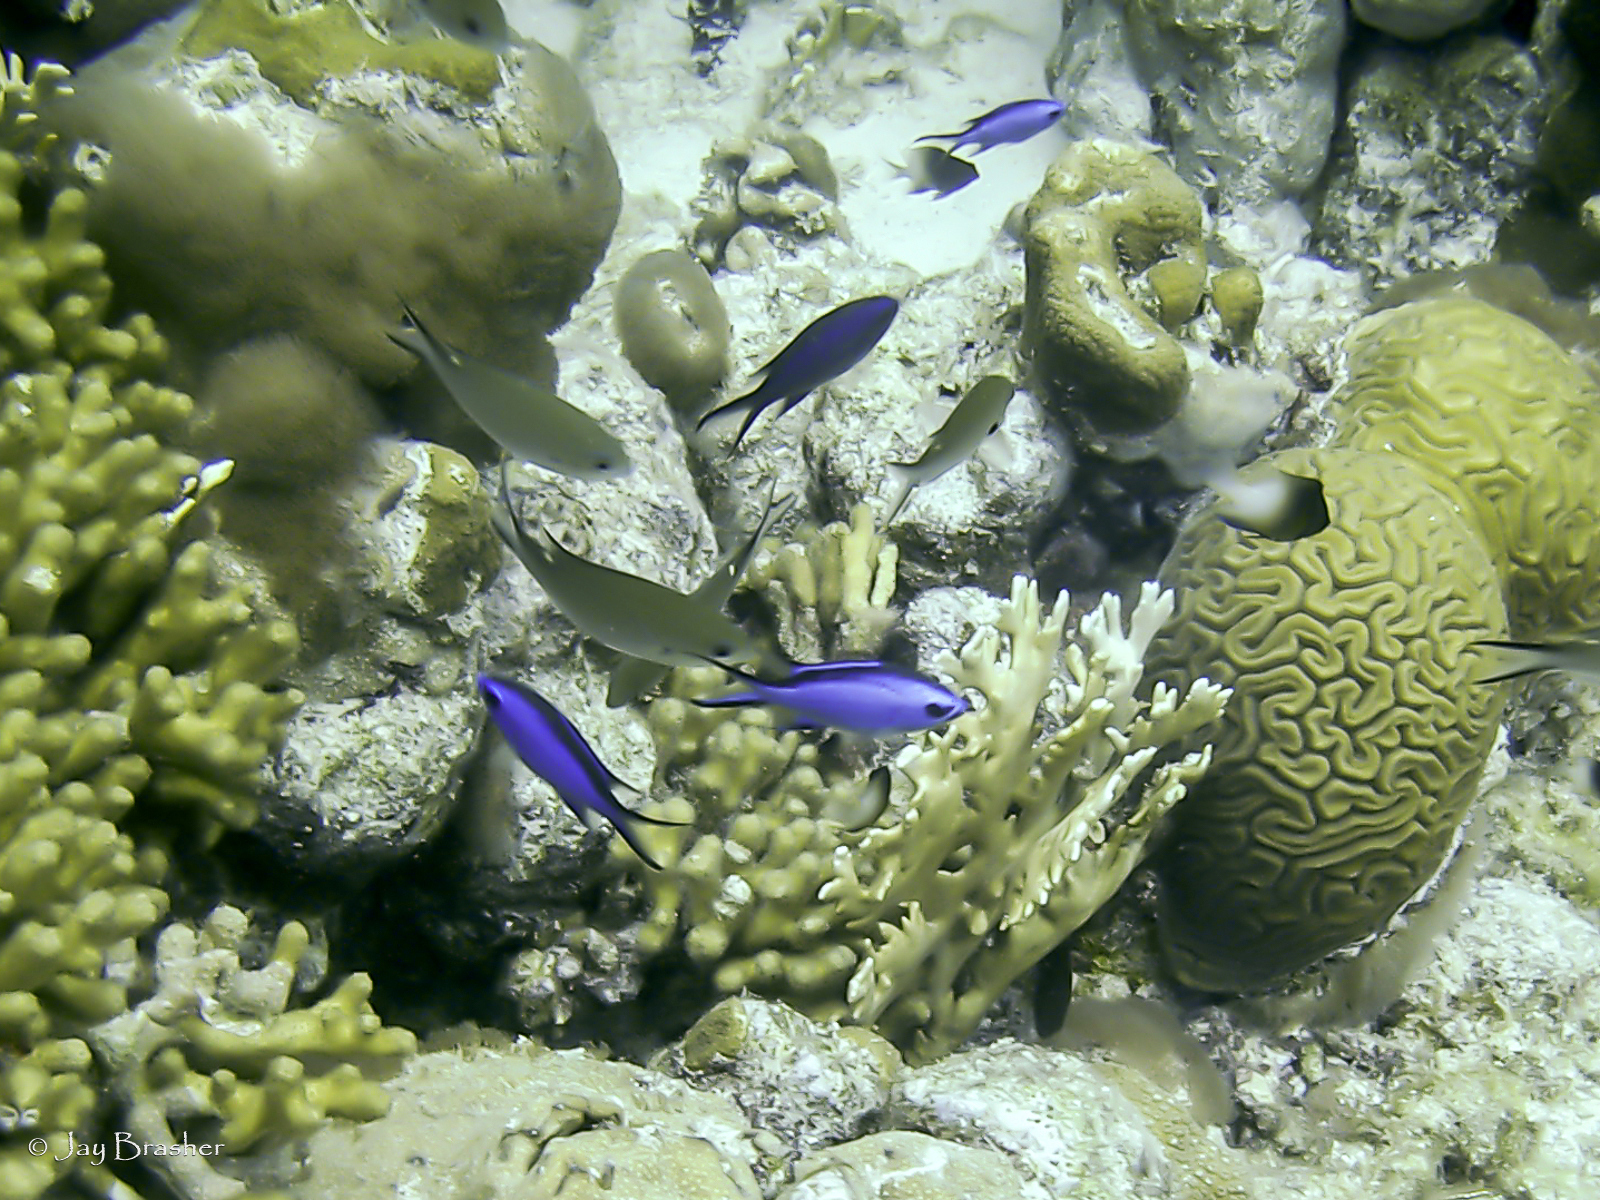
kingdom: Animalia
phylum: Chordata
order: Perciformes
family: Pomacentridae
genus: Chromis
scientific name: Chromis cyanea
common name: Blue chromis
